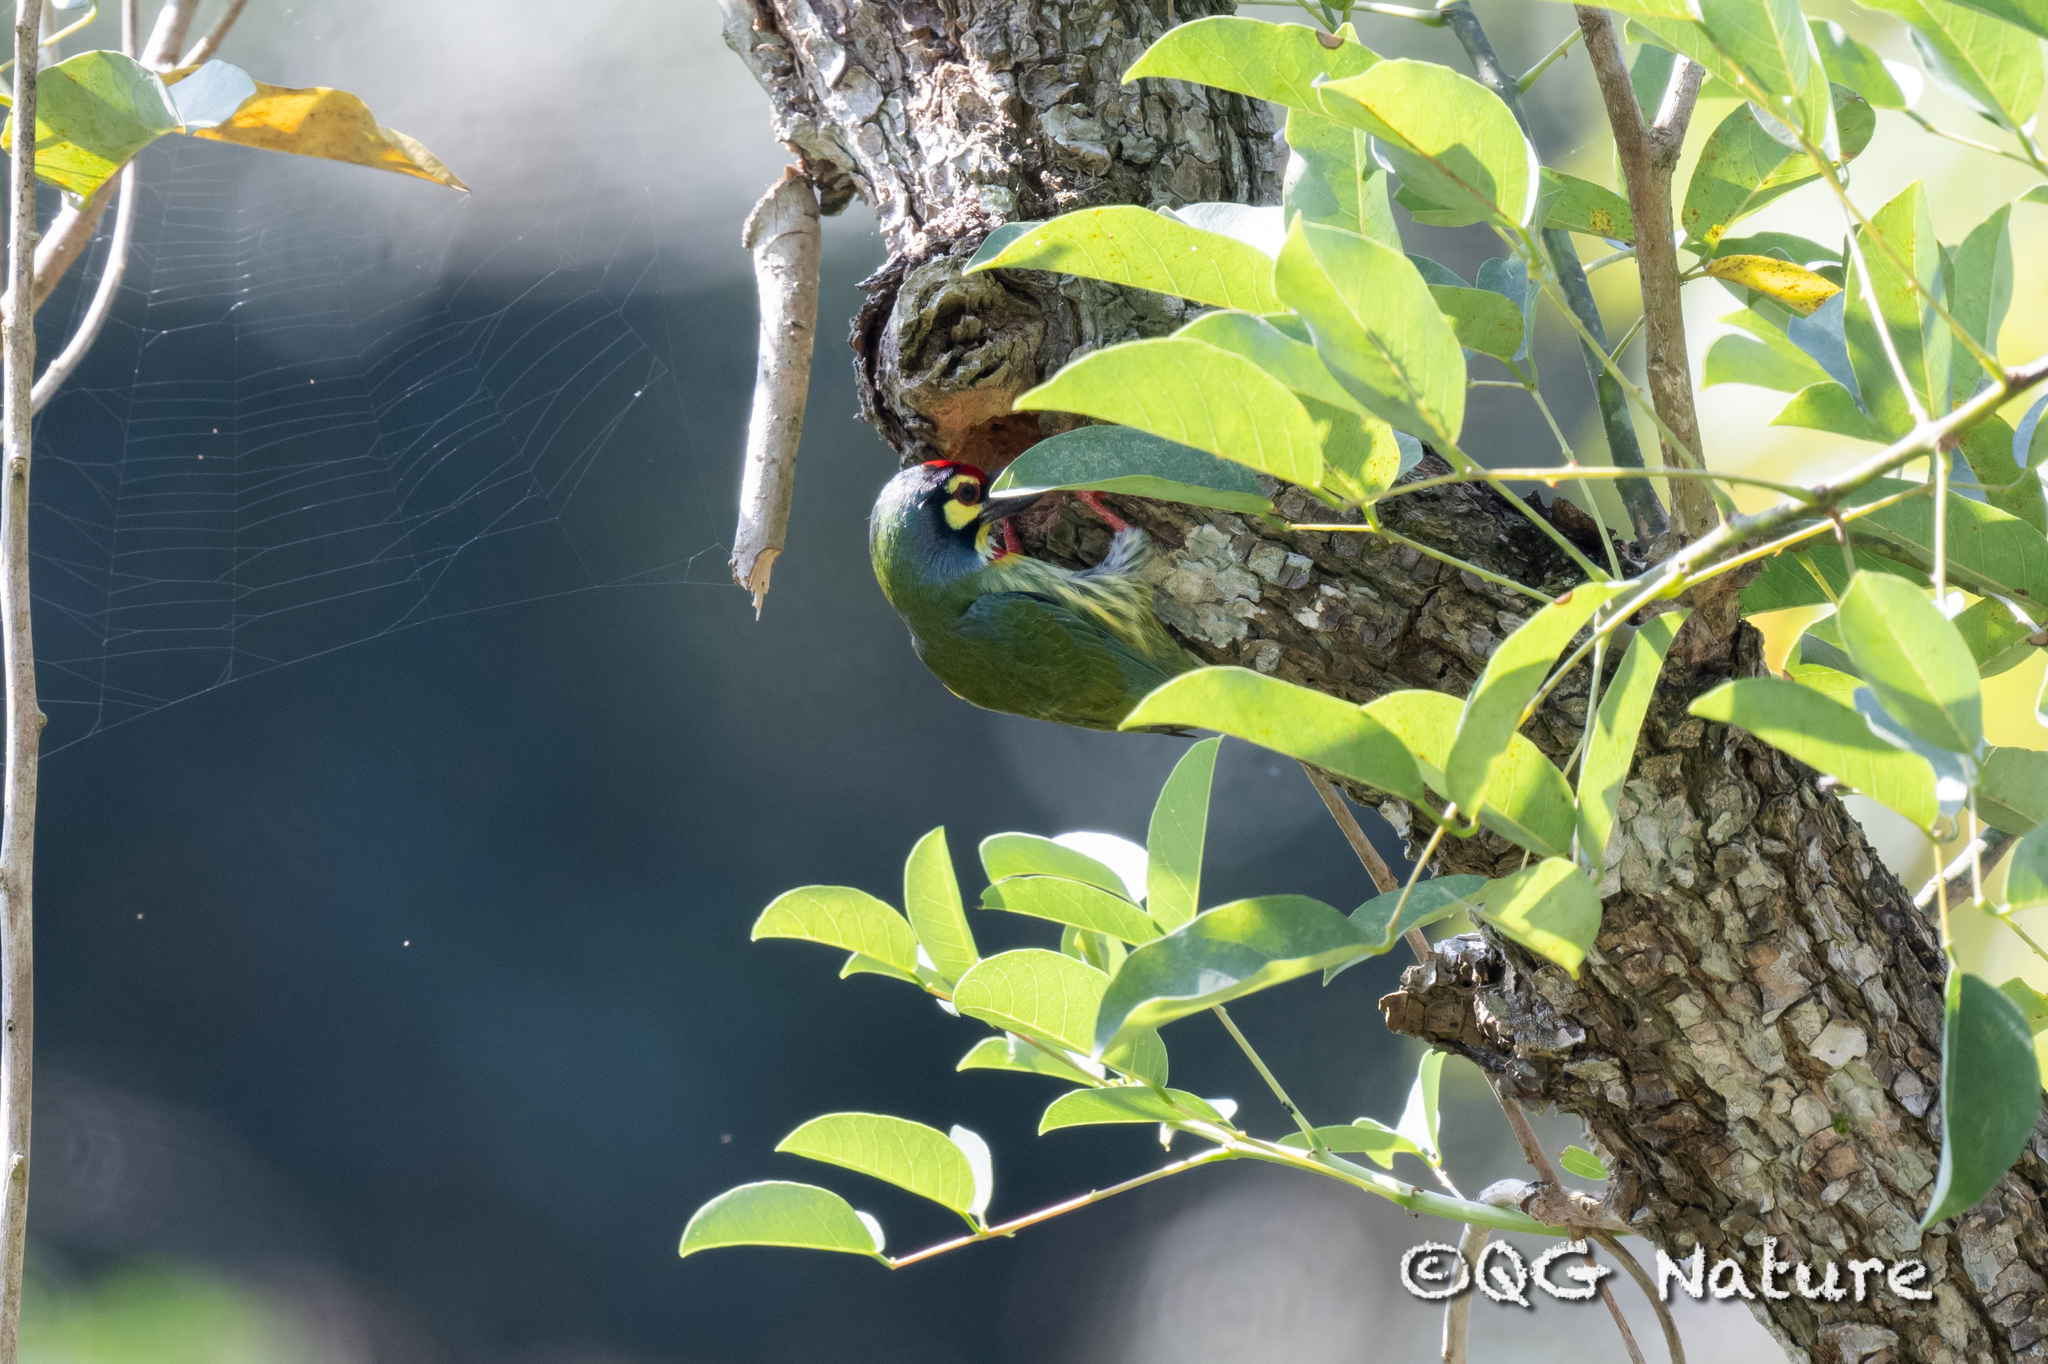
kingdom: Animalia
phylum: Chordata
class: Aves
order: Piciformes
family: Megalaimidae
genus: Psilopogon
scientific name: Psilopogon haemacephalus
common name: Coppersmith barbet
